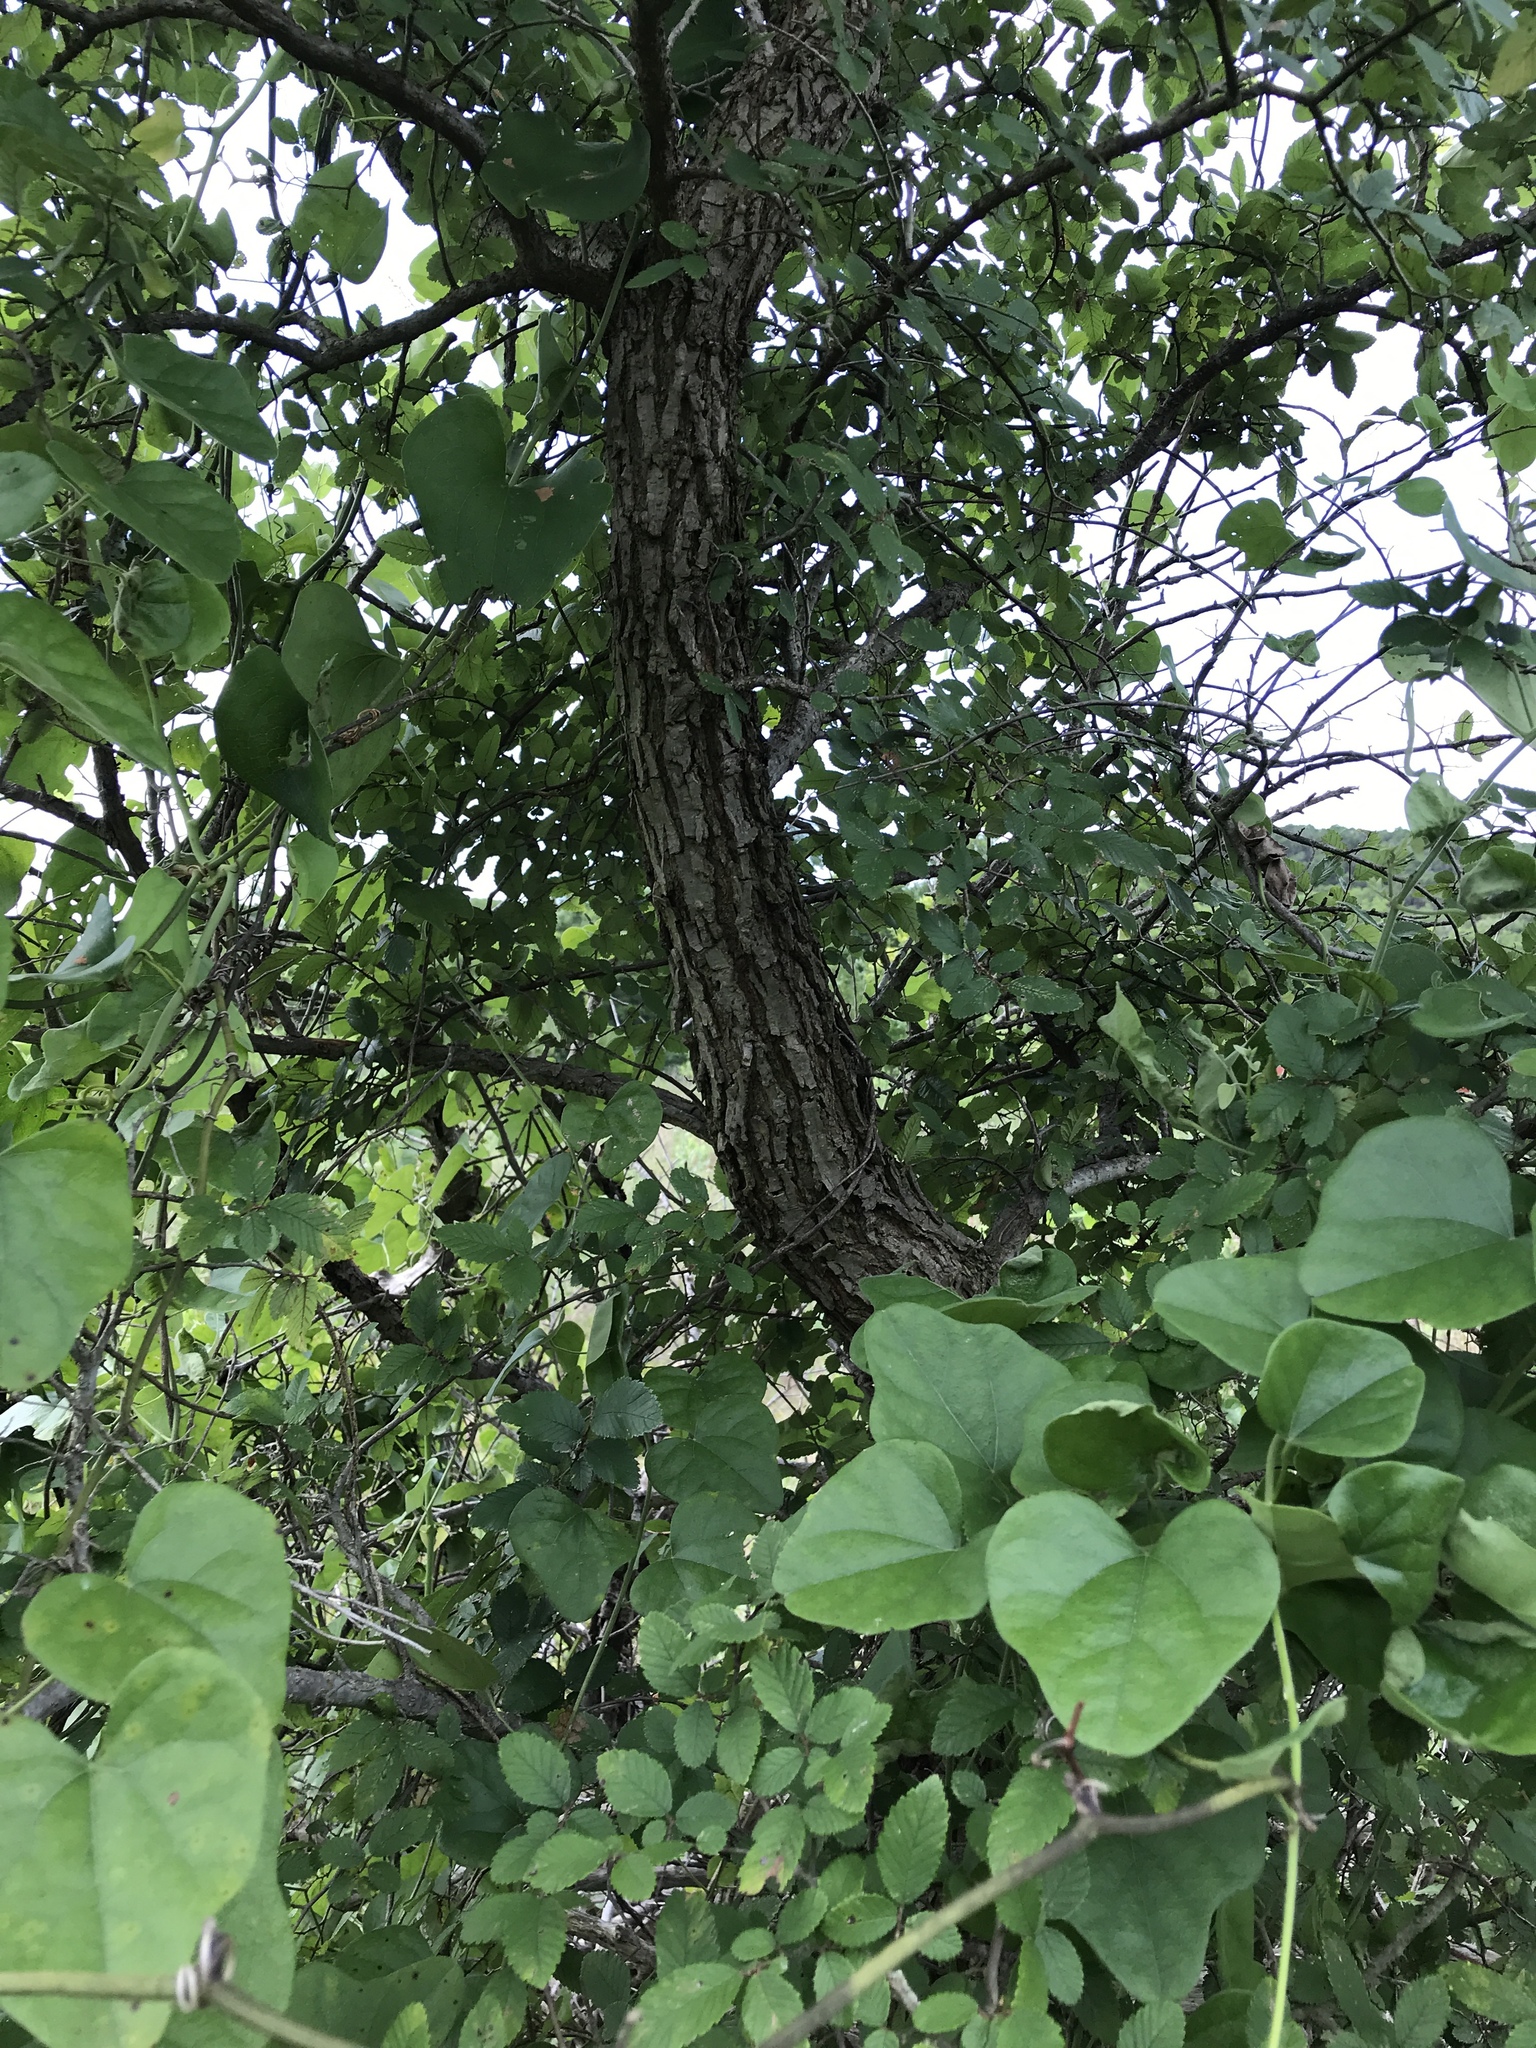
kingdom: Plantae
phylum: Tracheophyta
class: Magnoliopsida
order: Rosales
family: Ulmaceae
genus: Ulmus
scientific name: Ulmus crassifolia
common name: Basket elm
